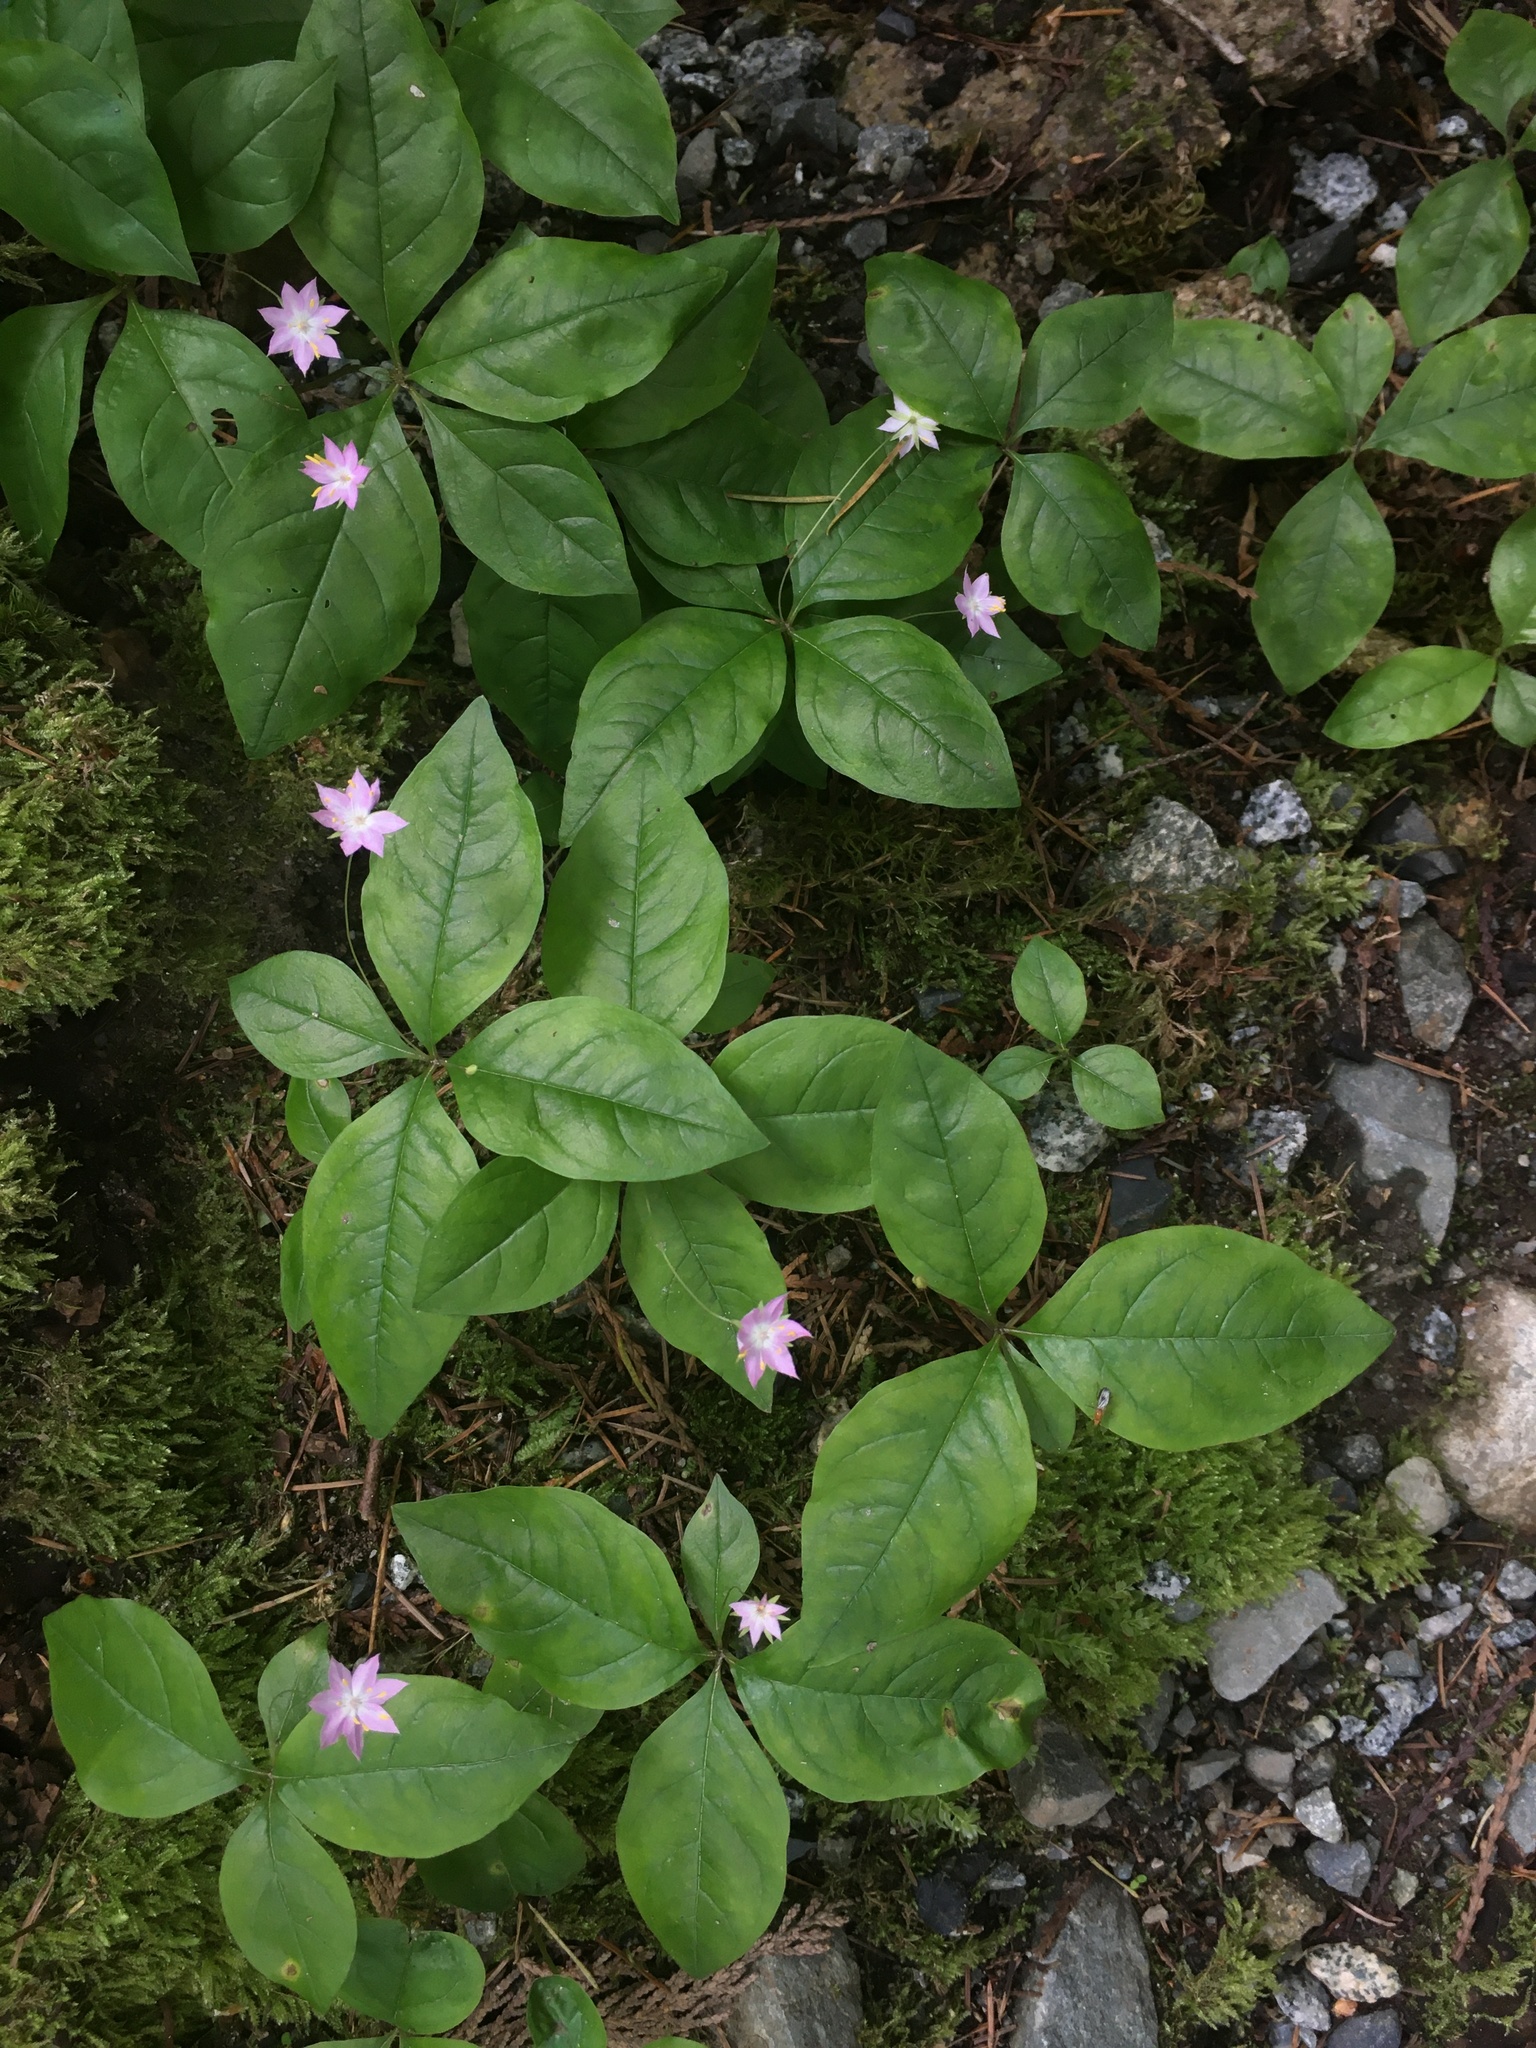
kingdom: Plantae
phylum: Tracheophyta
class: Magnoliopsida
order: Ericales
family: Primulaceae
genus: Lysimachia
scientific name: Lysimachia latifolia
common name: Pacific starflower
